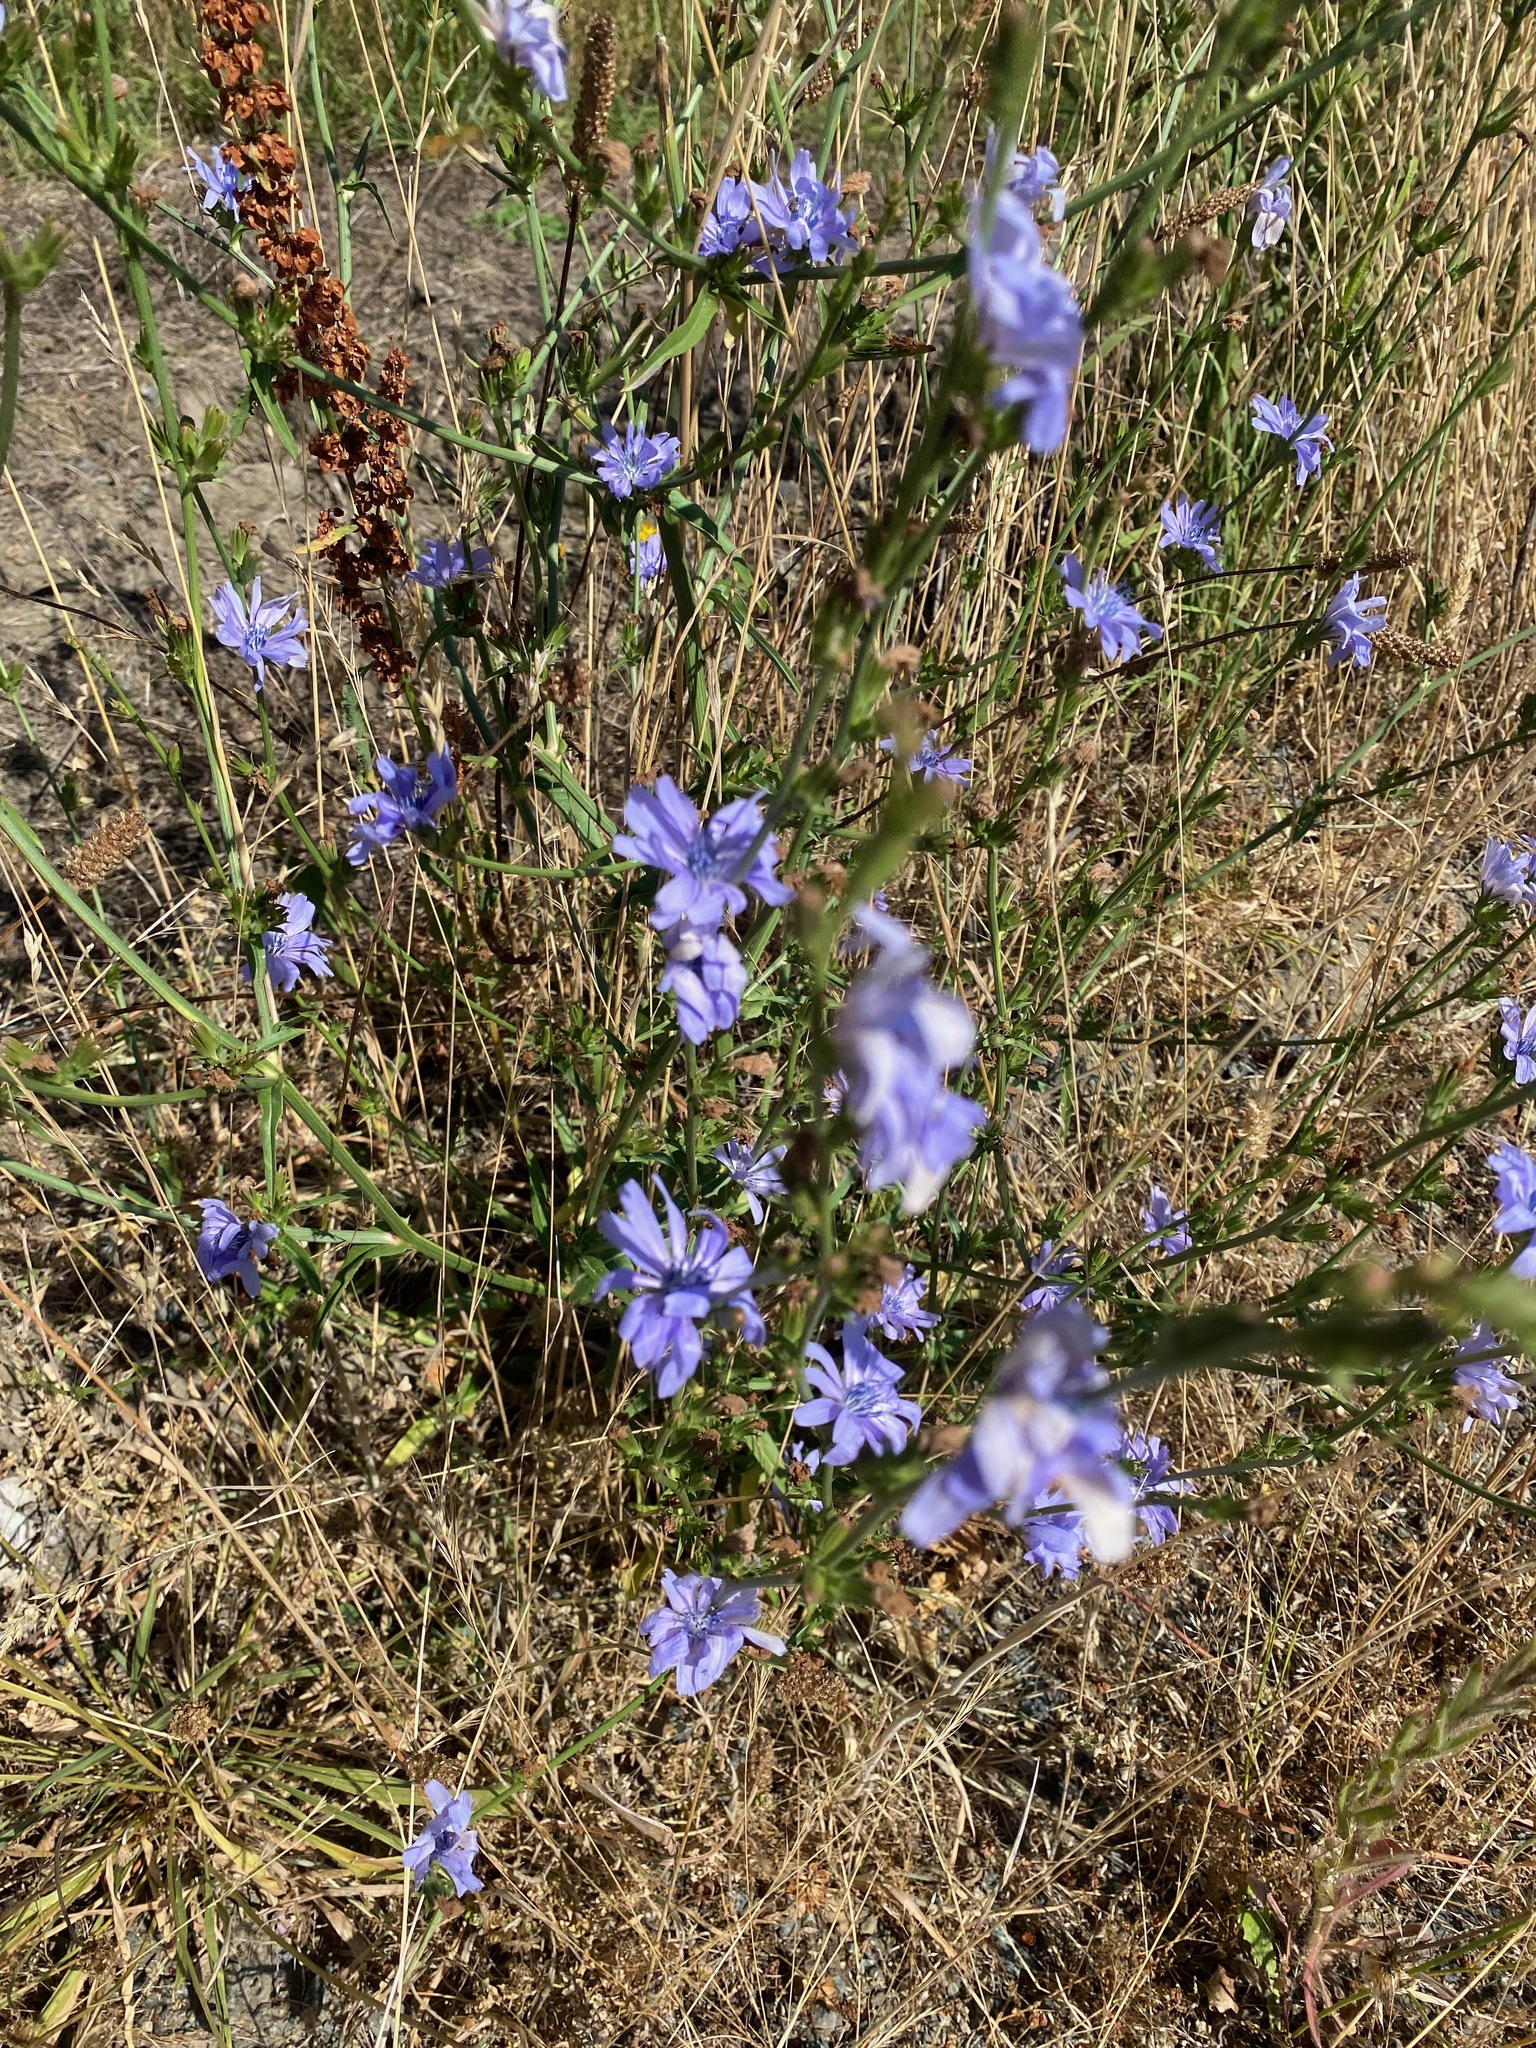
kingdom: Plantae
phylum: Tracheophyta
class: Magnoliopsida
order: Asterales
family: Asteraceae
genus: Cichorium
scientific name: Cichorium intybus
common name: Chicory
